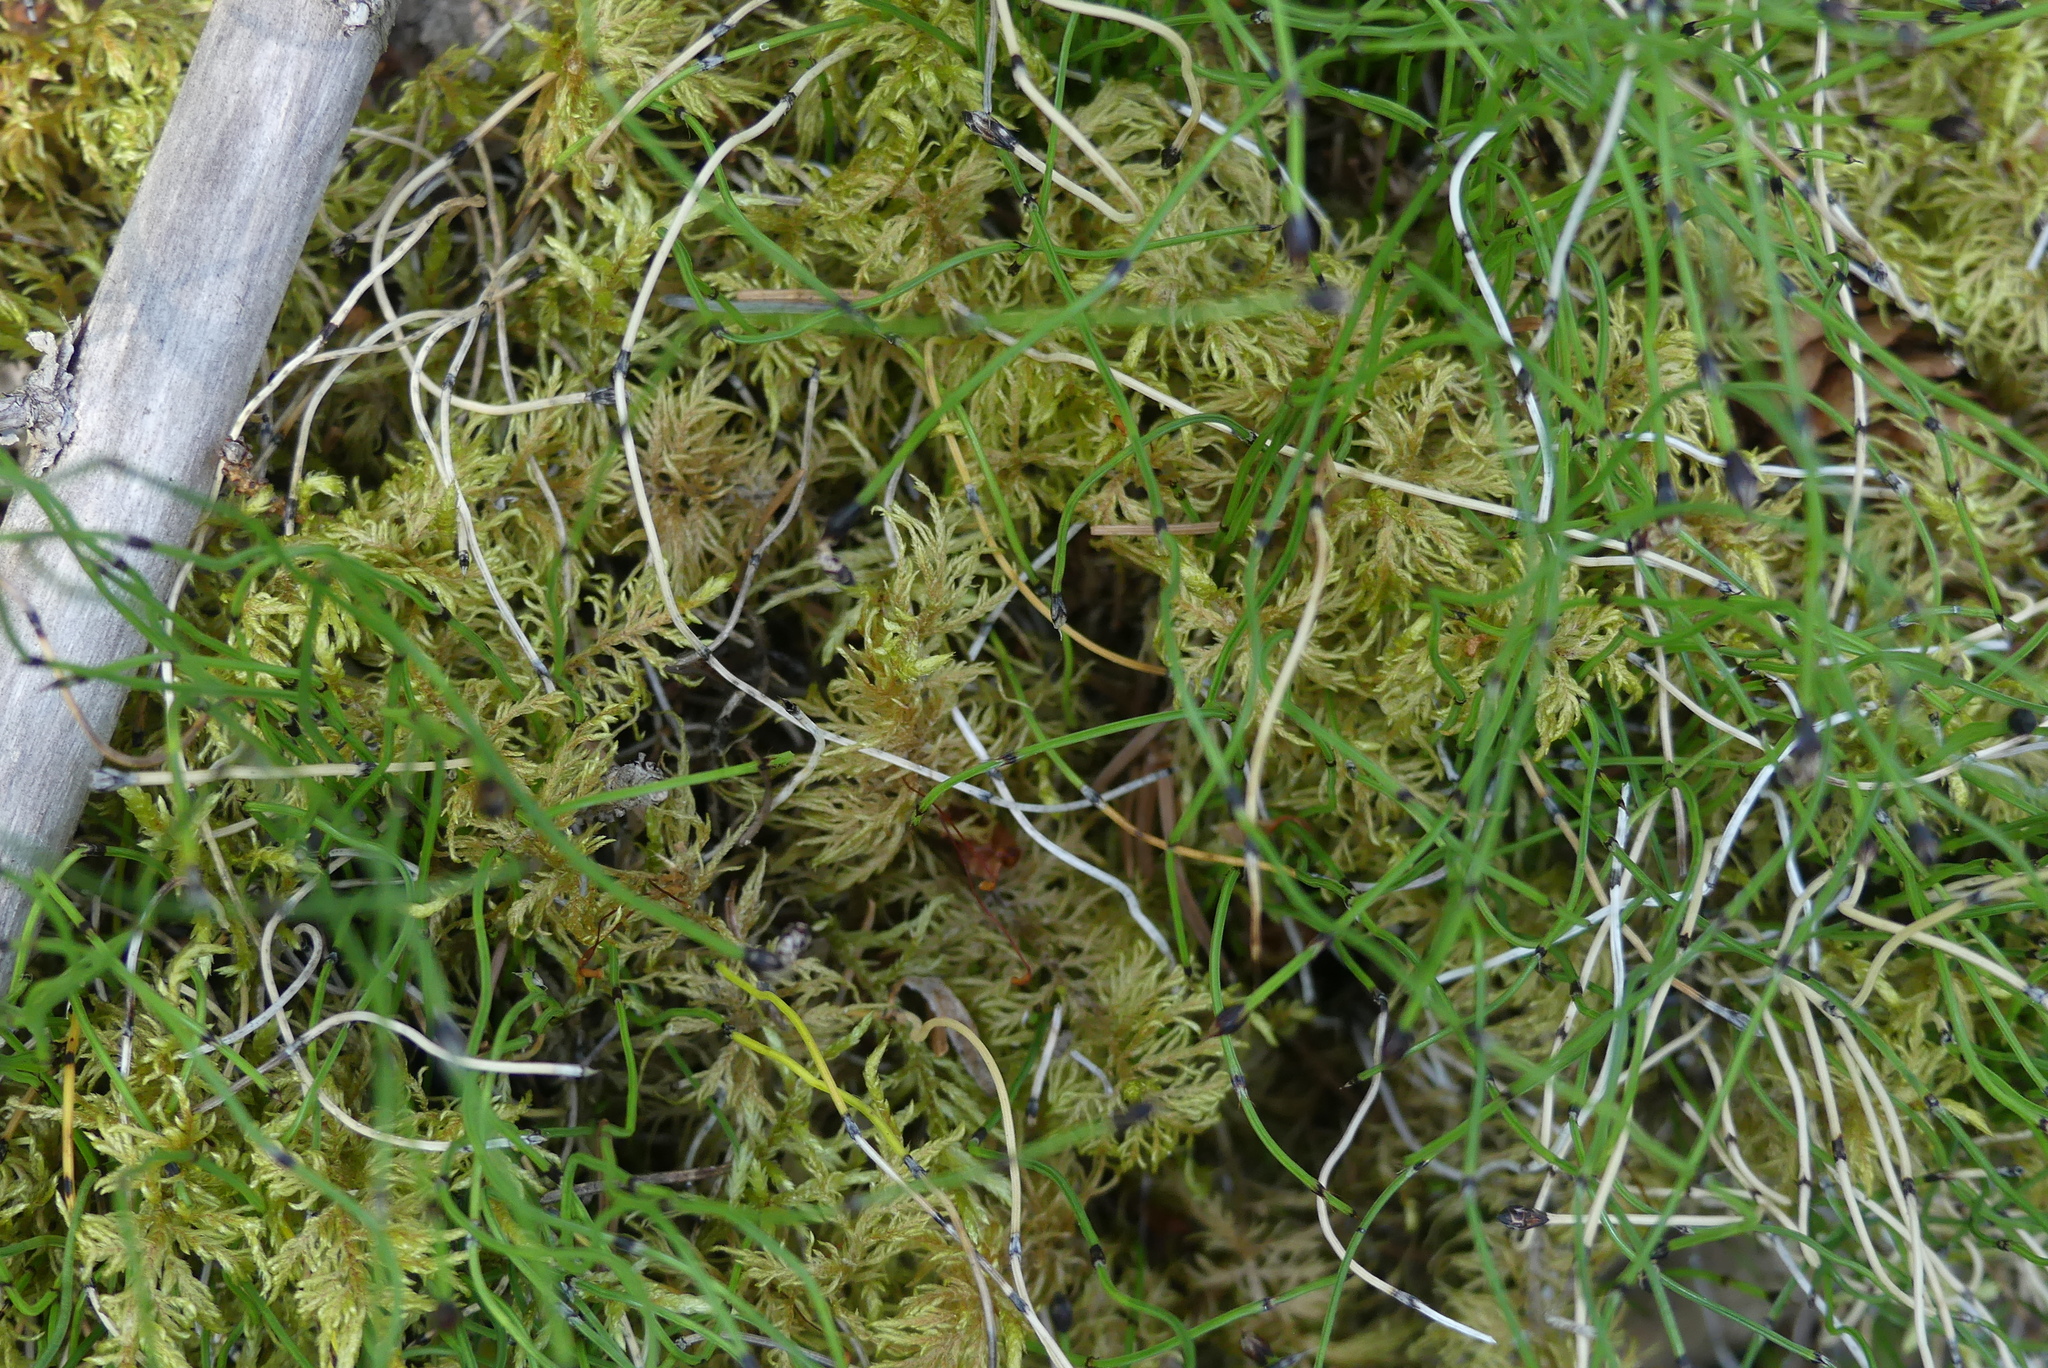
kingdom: Plantae
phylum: Bryophyta
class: Bryopsida
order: Hypnales
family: Hylocomiaceae
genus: Hylocomium
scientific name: Hylocomium splendens
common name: Stairstep moss
